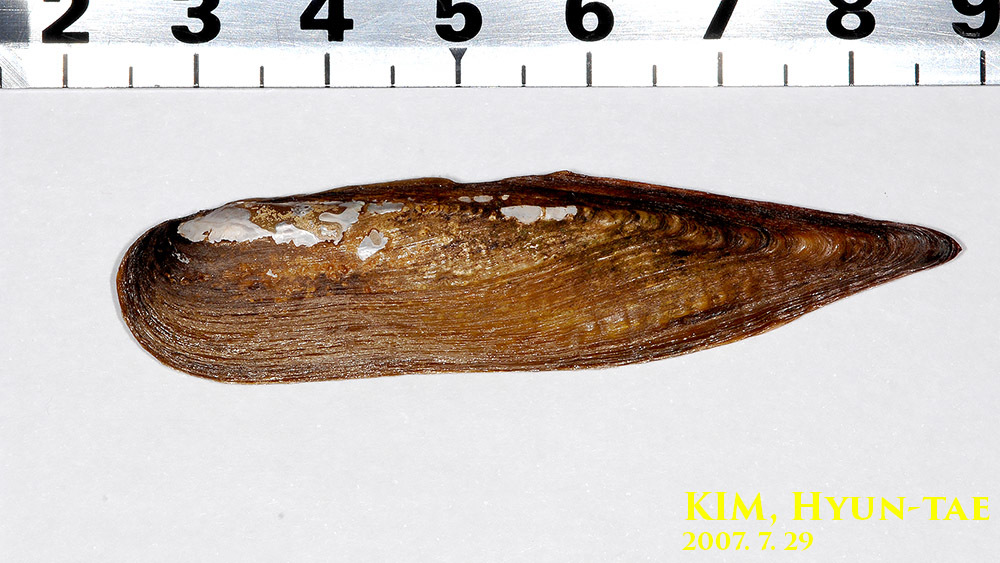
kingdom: Animalia
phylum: Mollusca
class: Bivalvia
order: Unionida
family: Unionidae
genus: Lanceolaria
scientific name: Lanceolaria acrorrhyncha
